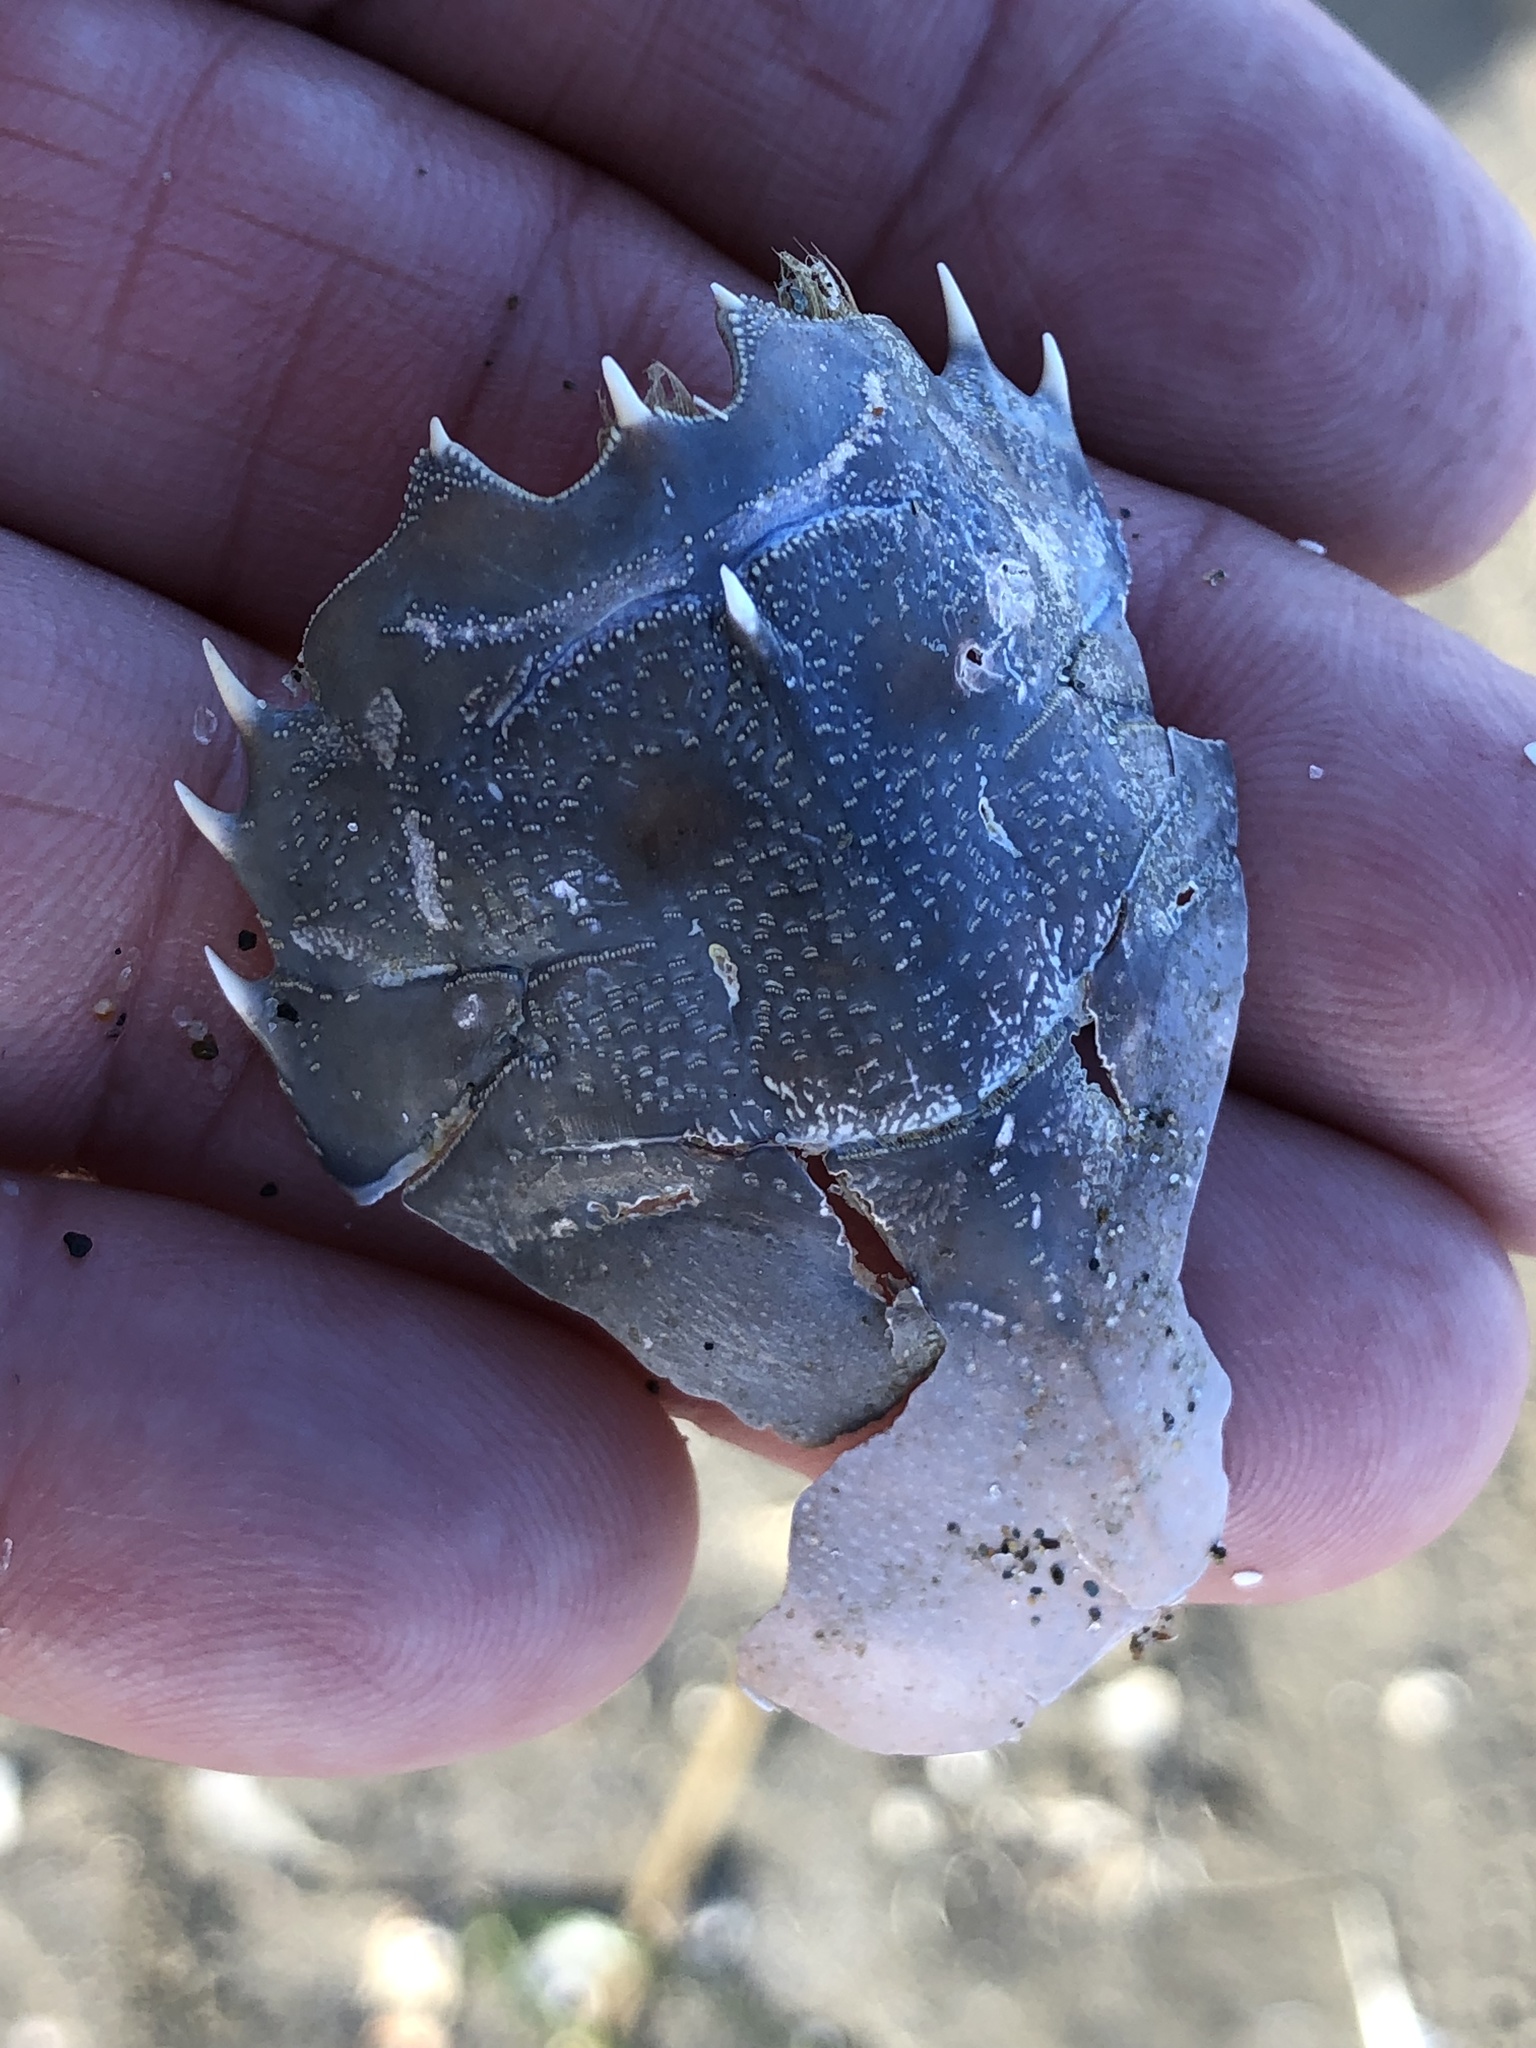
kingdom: Animalia
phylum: Arthropoda
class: Malacostraca
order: Decapoda
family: Blepharipodidae
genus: Blepharipoda
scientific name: Blepharipoda occidentalis
